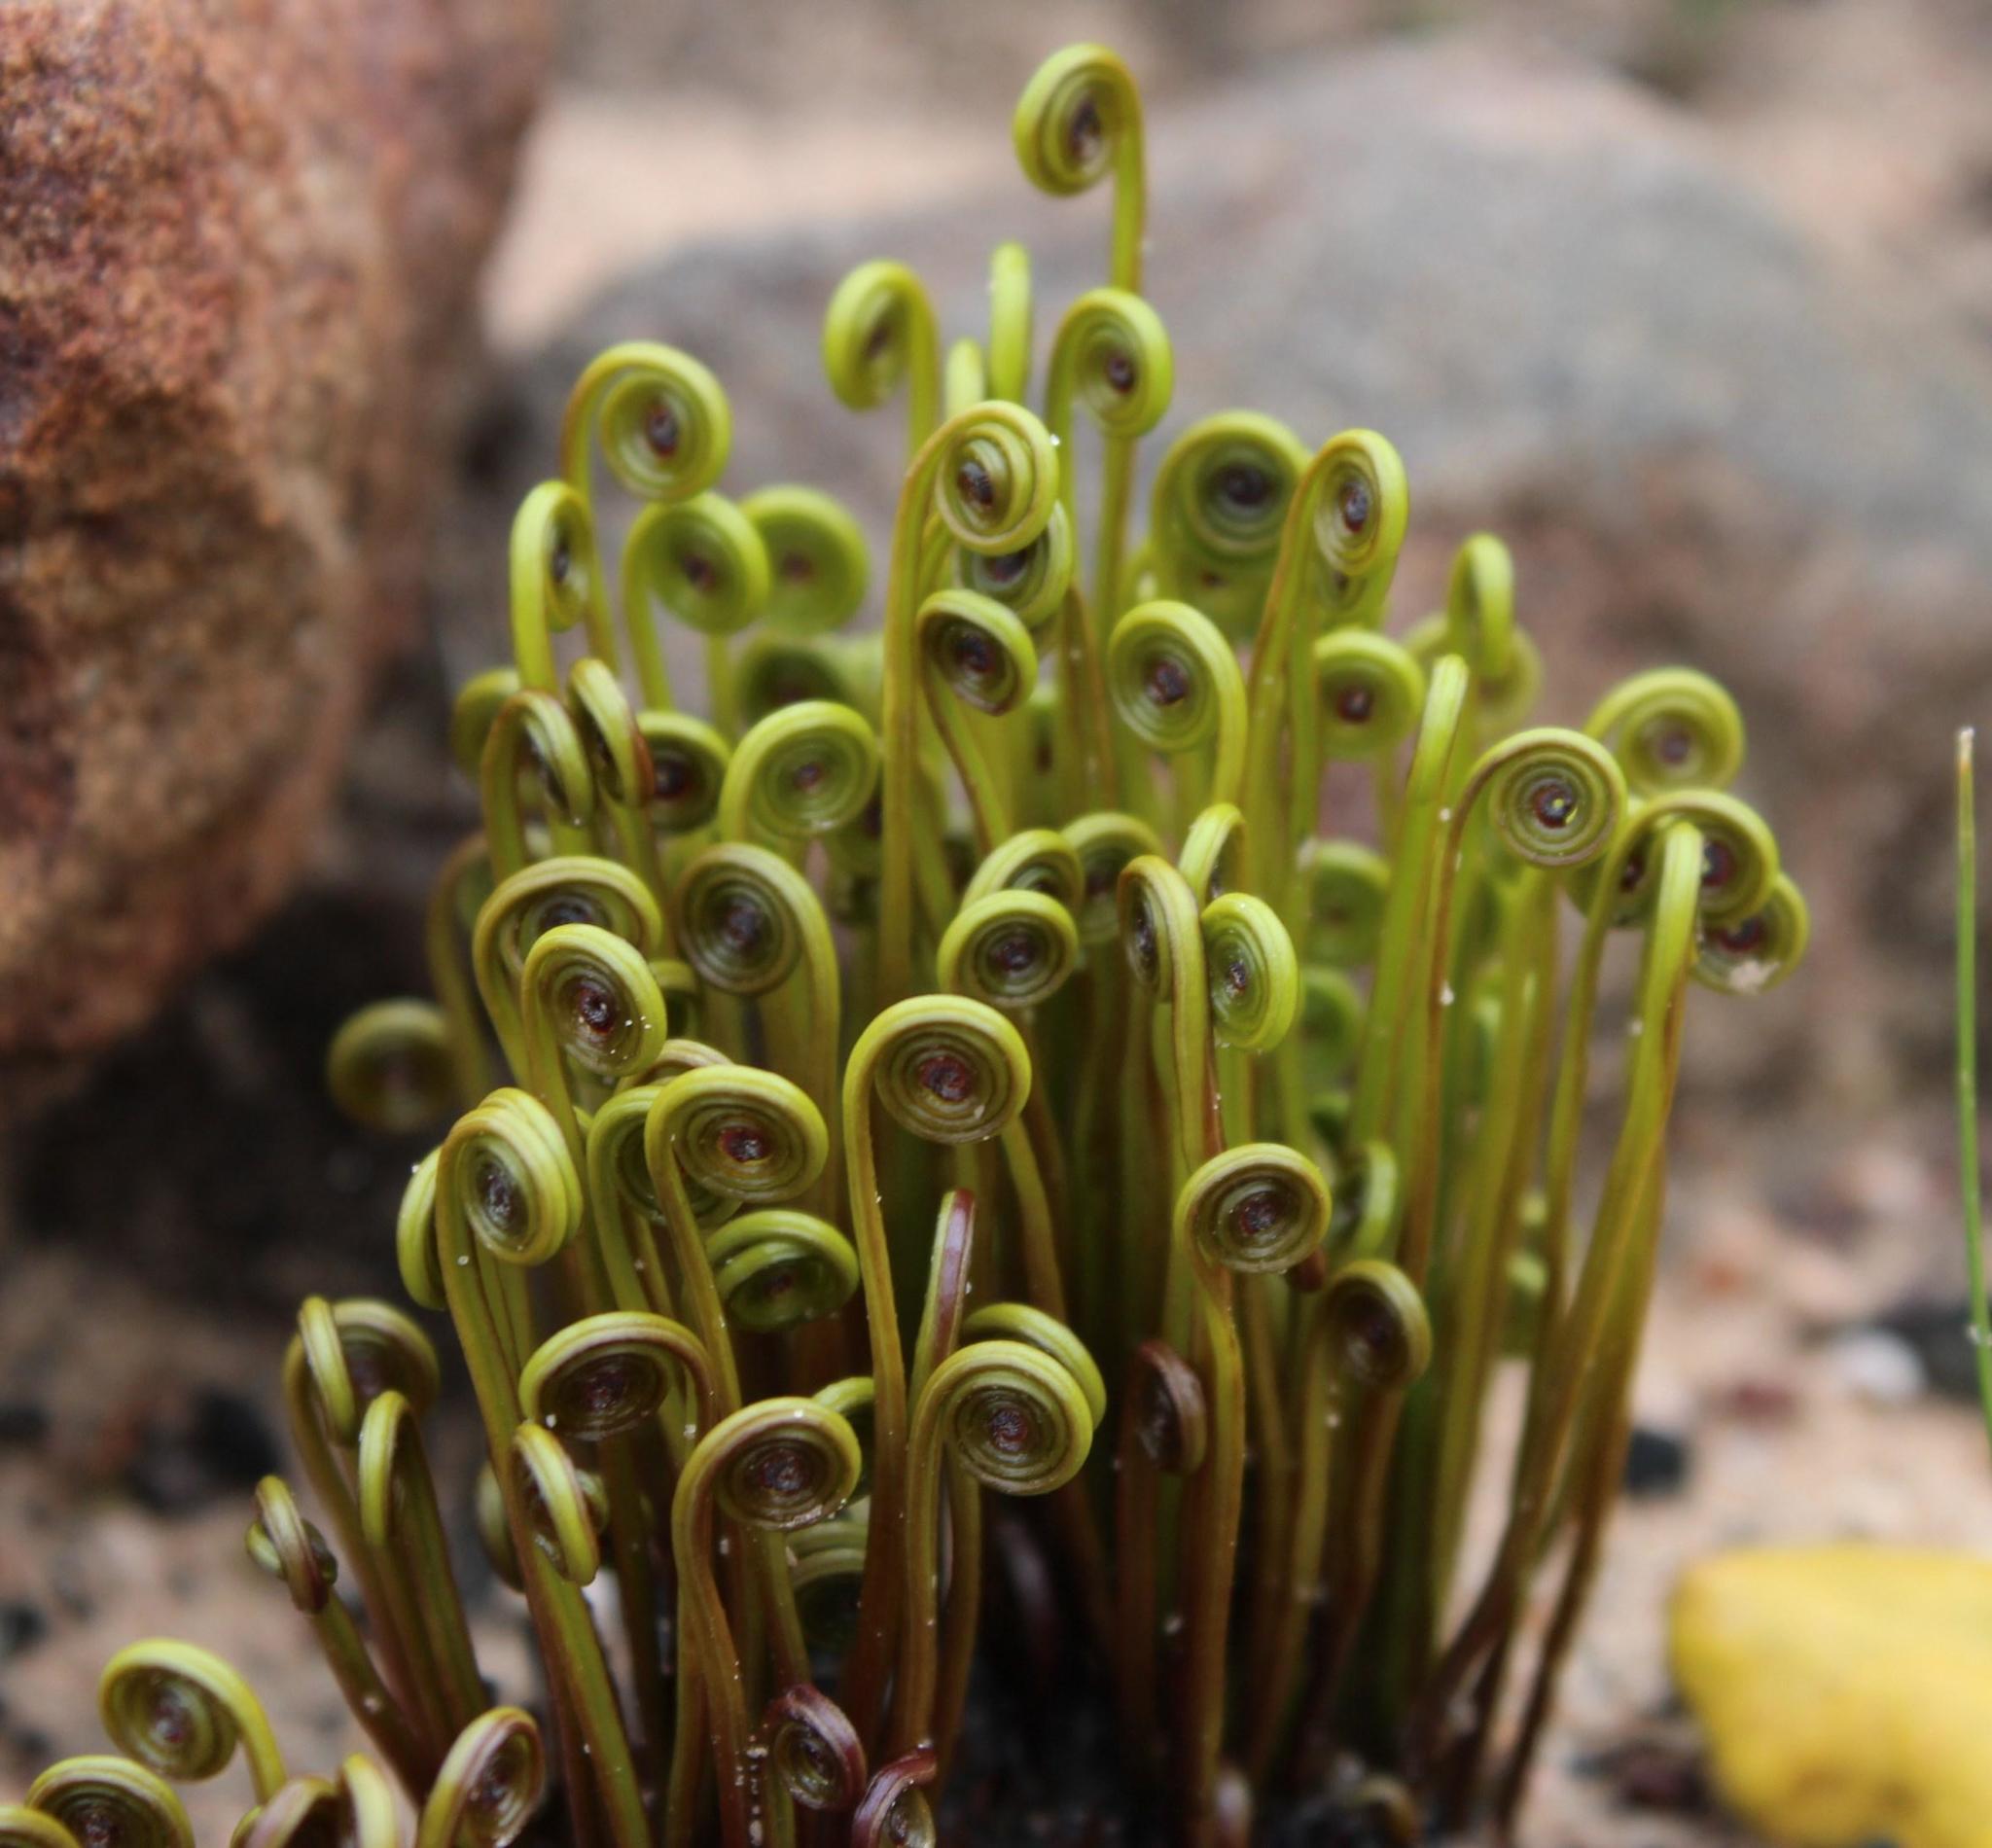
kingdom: Plantae
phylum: Tracheophyta
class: Polypodiopsida
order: Schizaeales
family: Schizaeaceae
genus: Schizaea
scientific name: Schizaea pectinata
